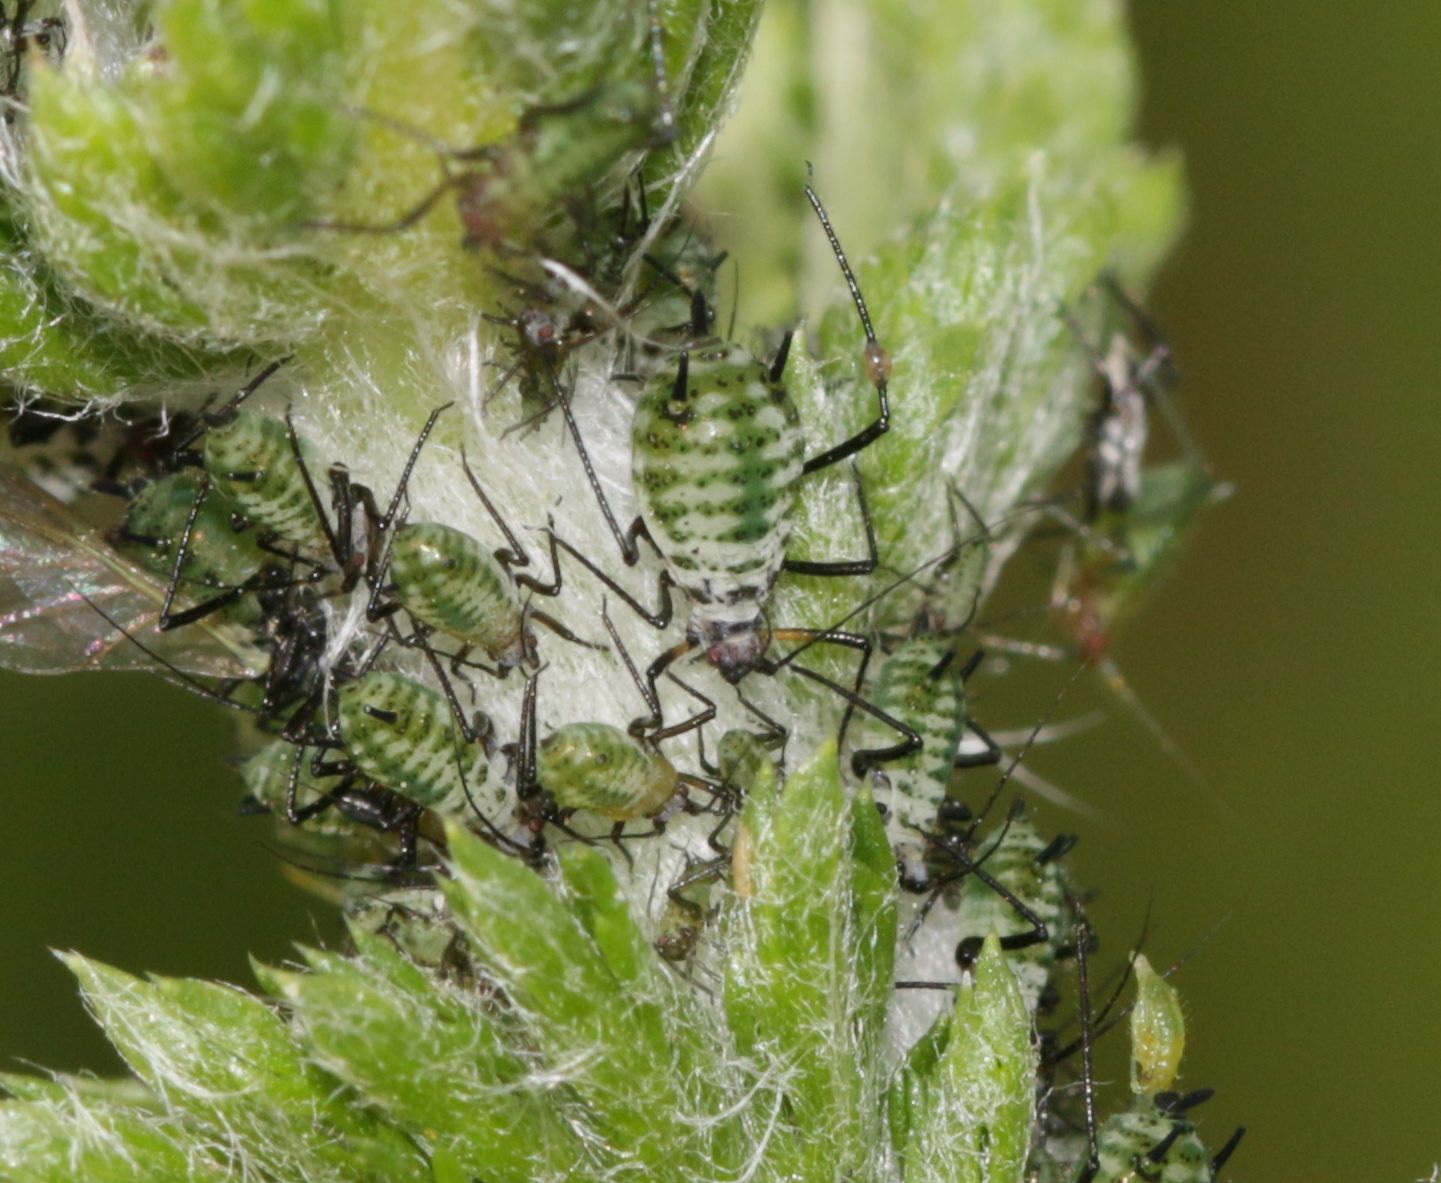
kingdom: Animalia
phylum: Arthropoda
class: Insecta
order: Hemiptera
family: Aphididae
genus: Macrosiphoniella
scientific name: Macrosiphoniella millefolii
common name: Aphid
